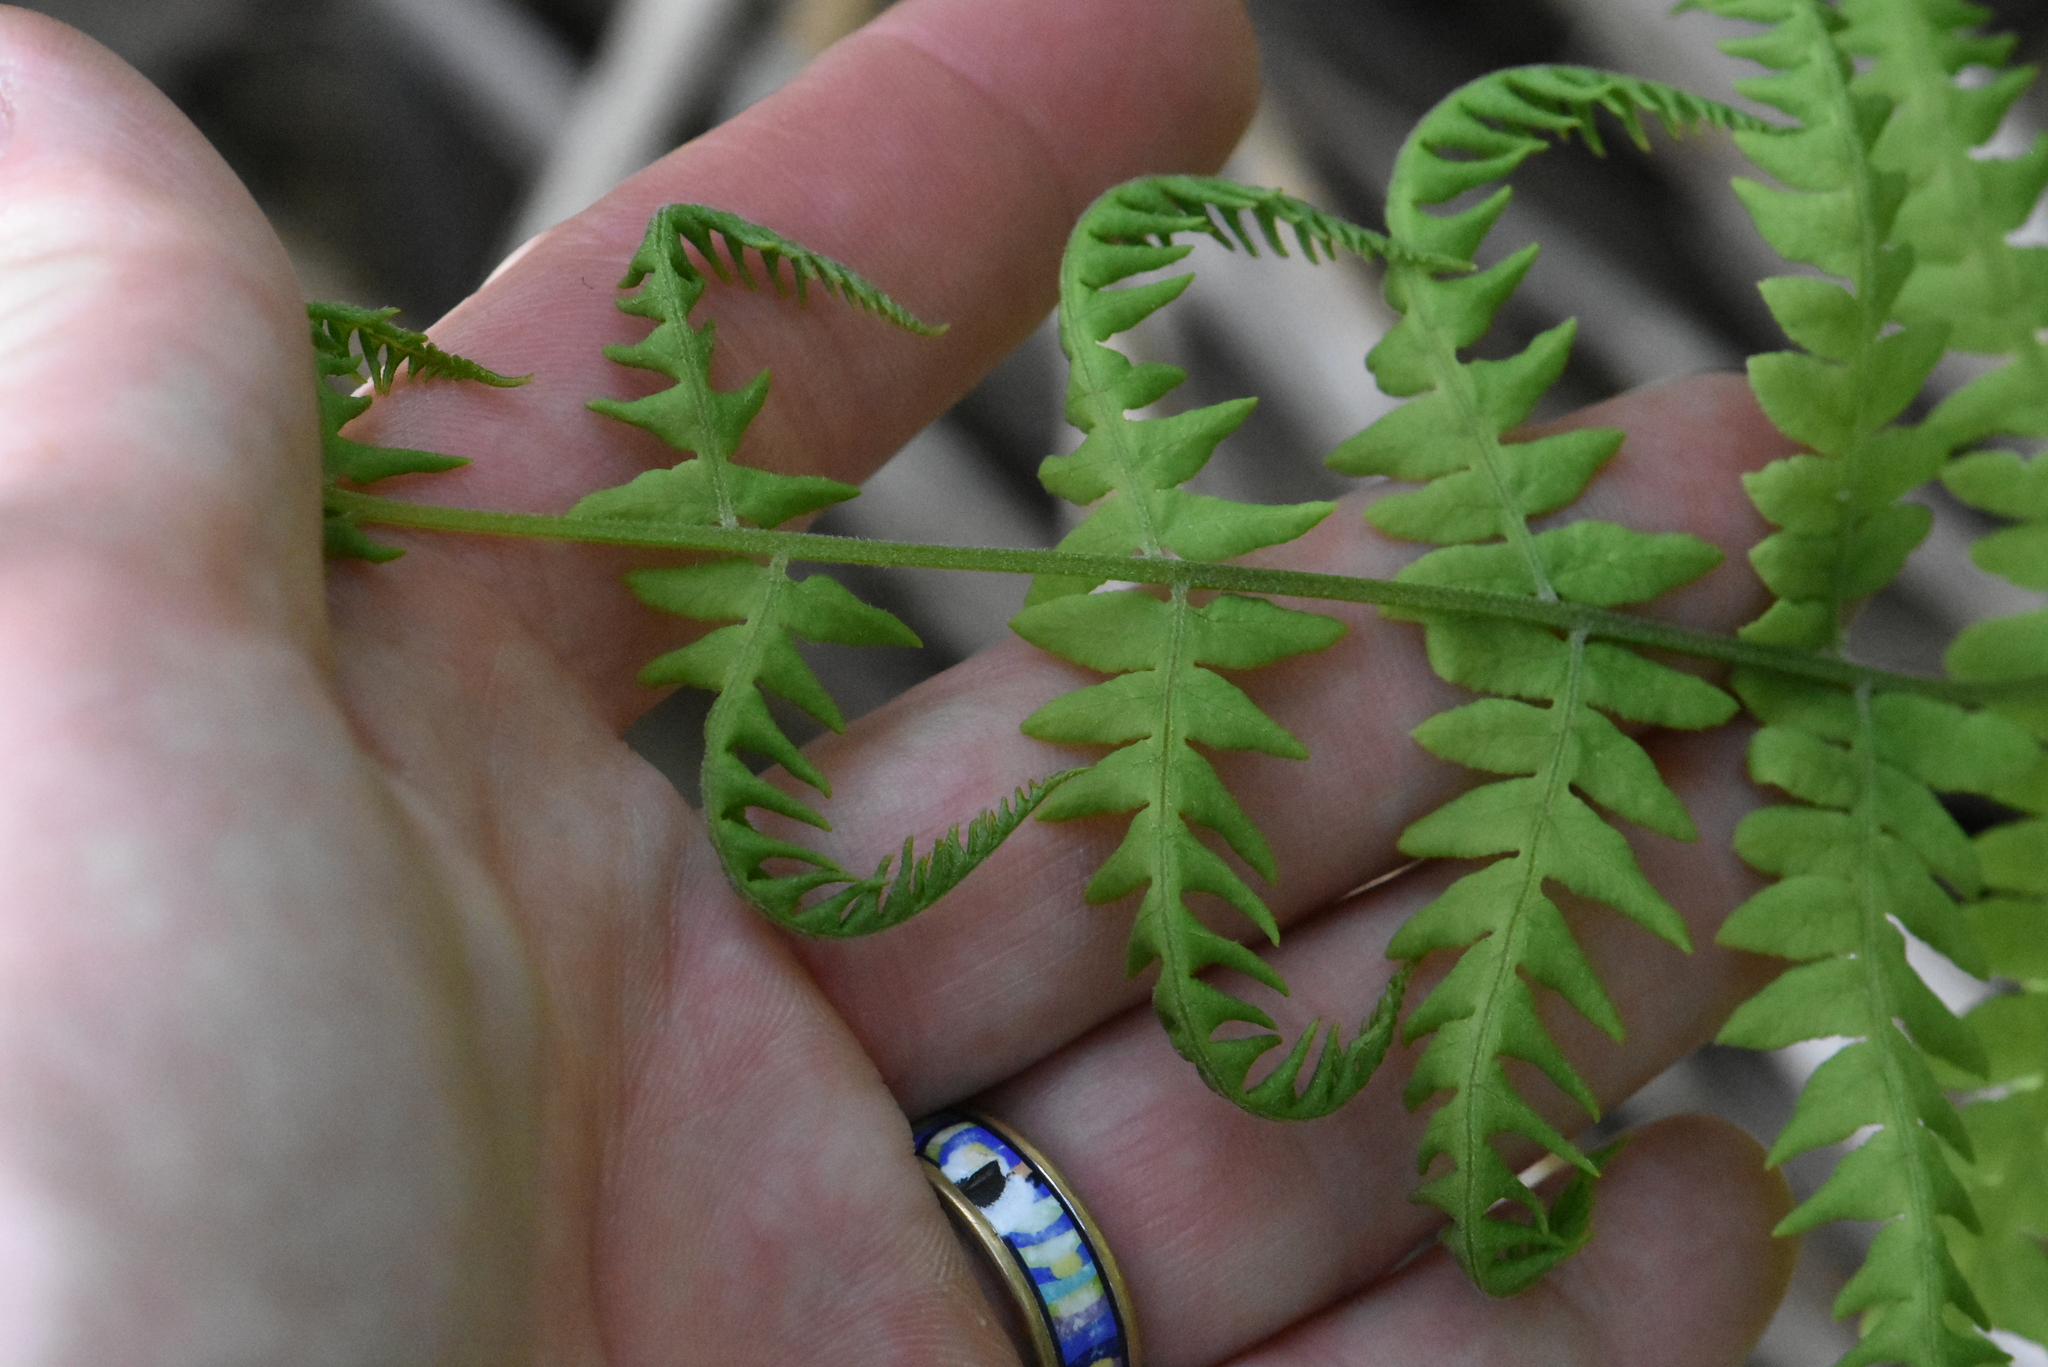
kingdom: Plantae
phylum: Tracheophyta
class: Polypodiopsida
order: Polypodiales
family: Thelypteridaceae
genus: Thelypteris
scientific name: Thelypteris palustris
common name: Marsh fern
